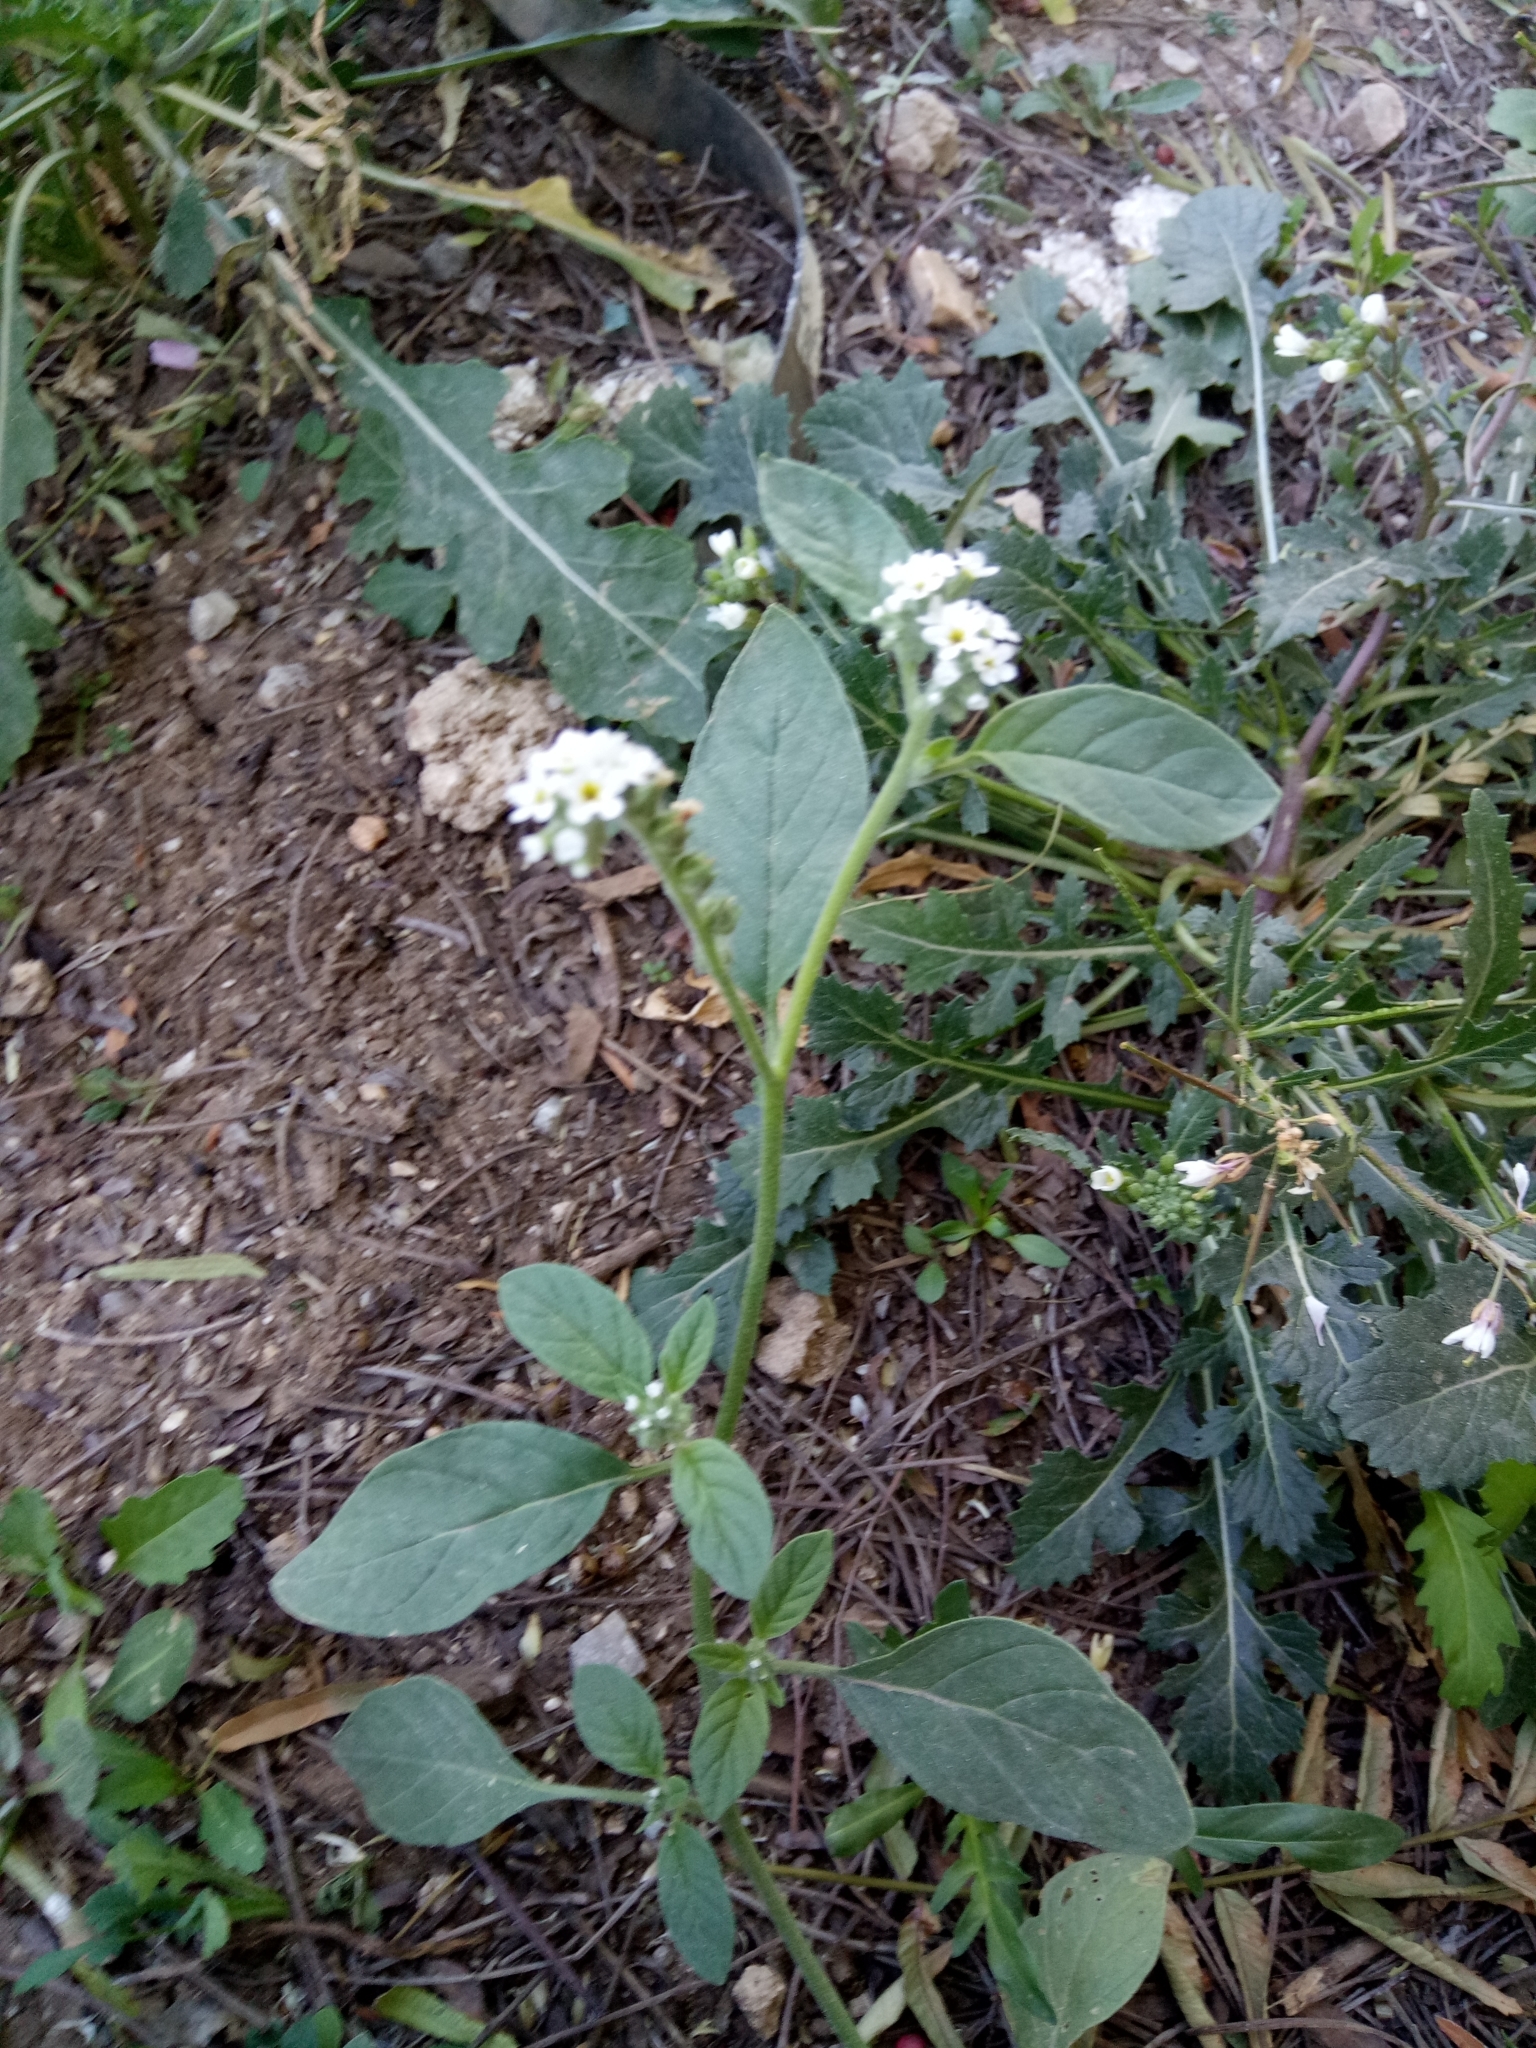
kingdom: Plantae
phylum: Tracheophyta
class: Magnoliopsida
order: Boraginales
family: Heliotropiaceae
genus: Heliotropium
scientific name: Heliotropium europaeum
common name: European heliotrope
